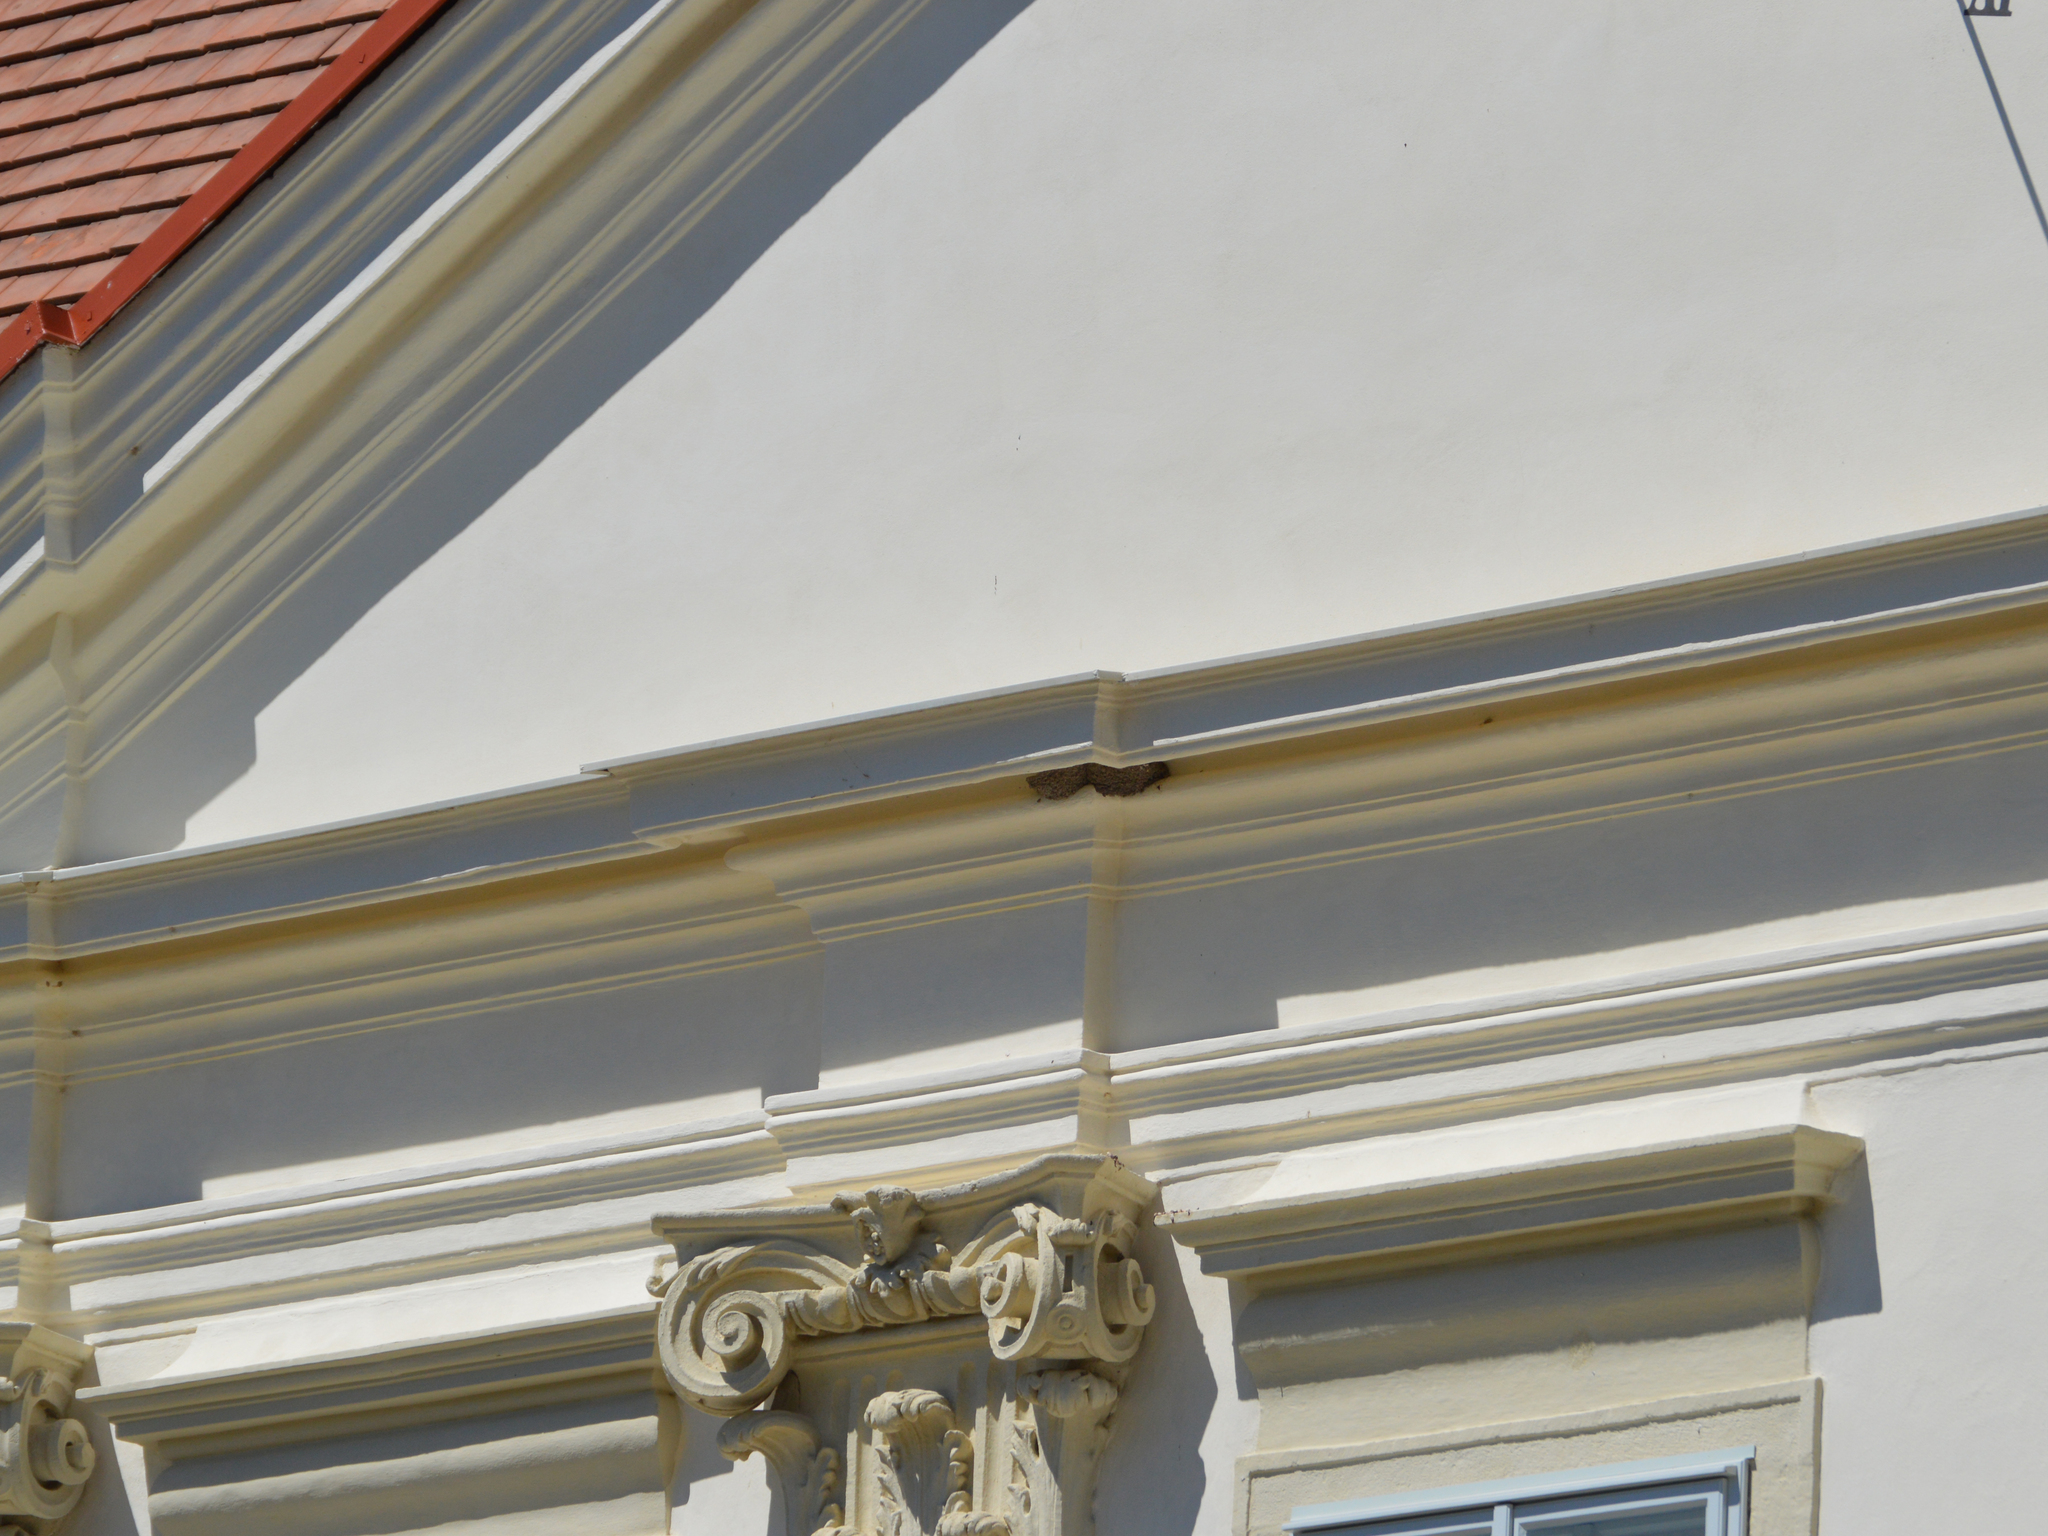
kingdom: Animalia
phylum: Chordata
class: Aves
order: Passeriformes
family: Hirundinidae
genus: Delichon
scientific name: Delichon urbicum
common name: Common house martin
